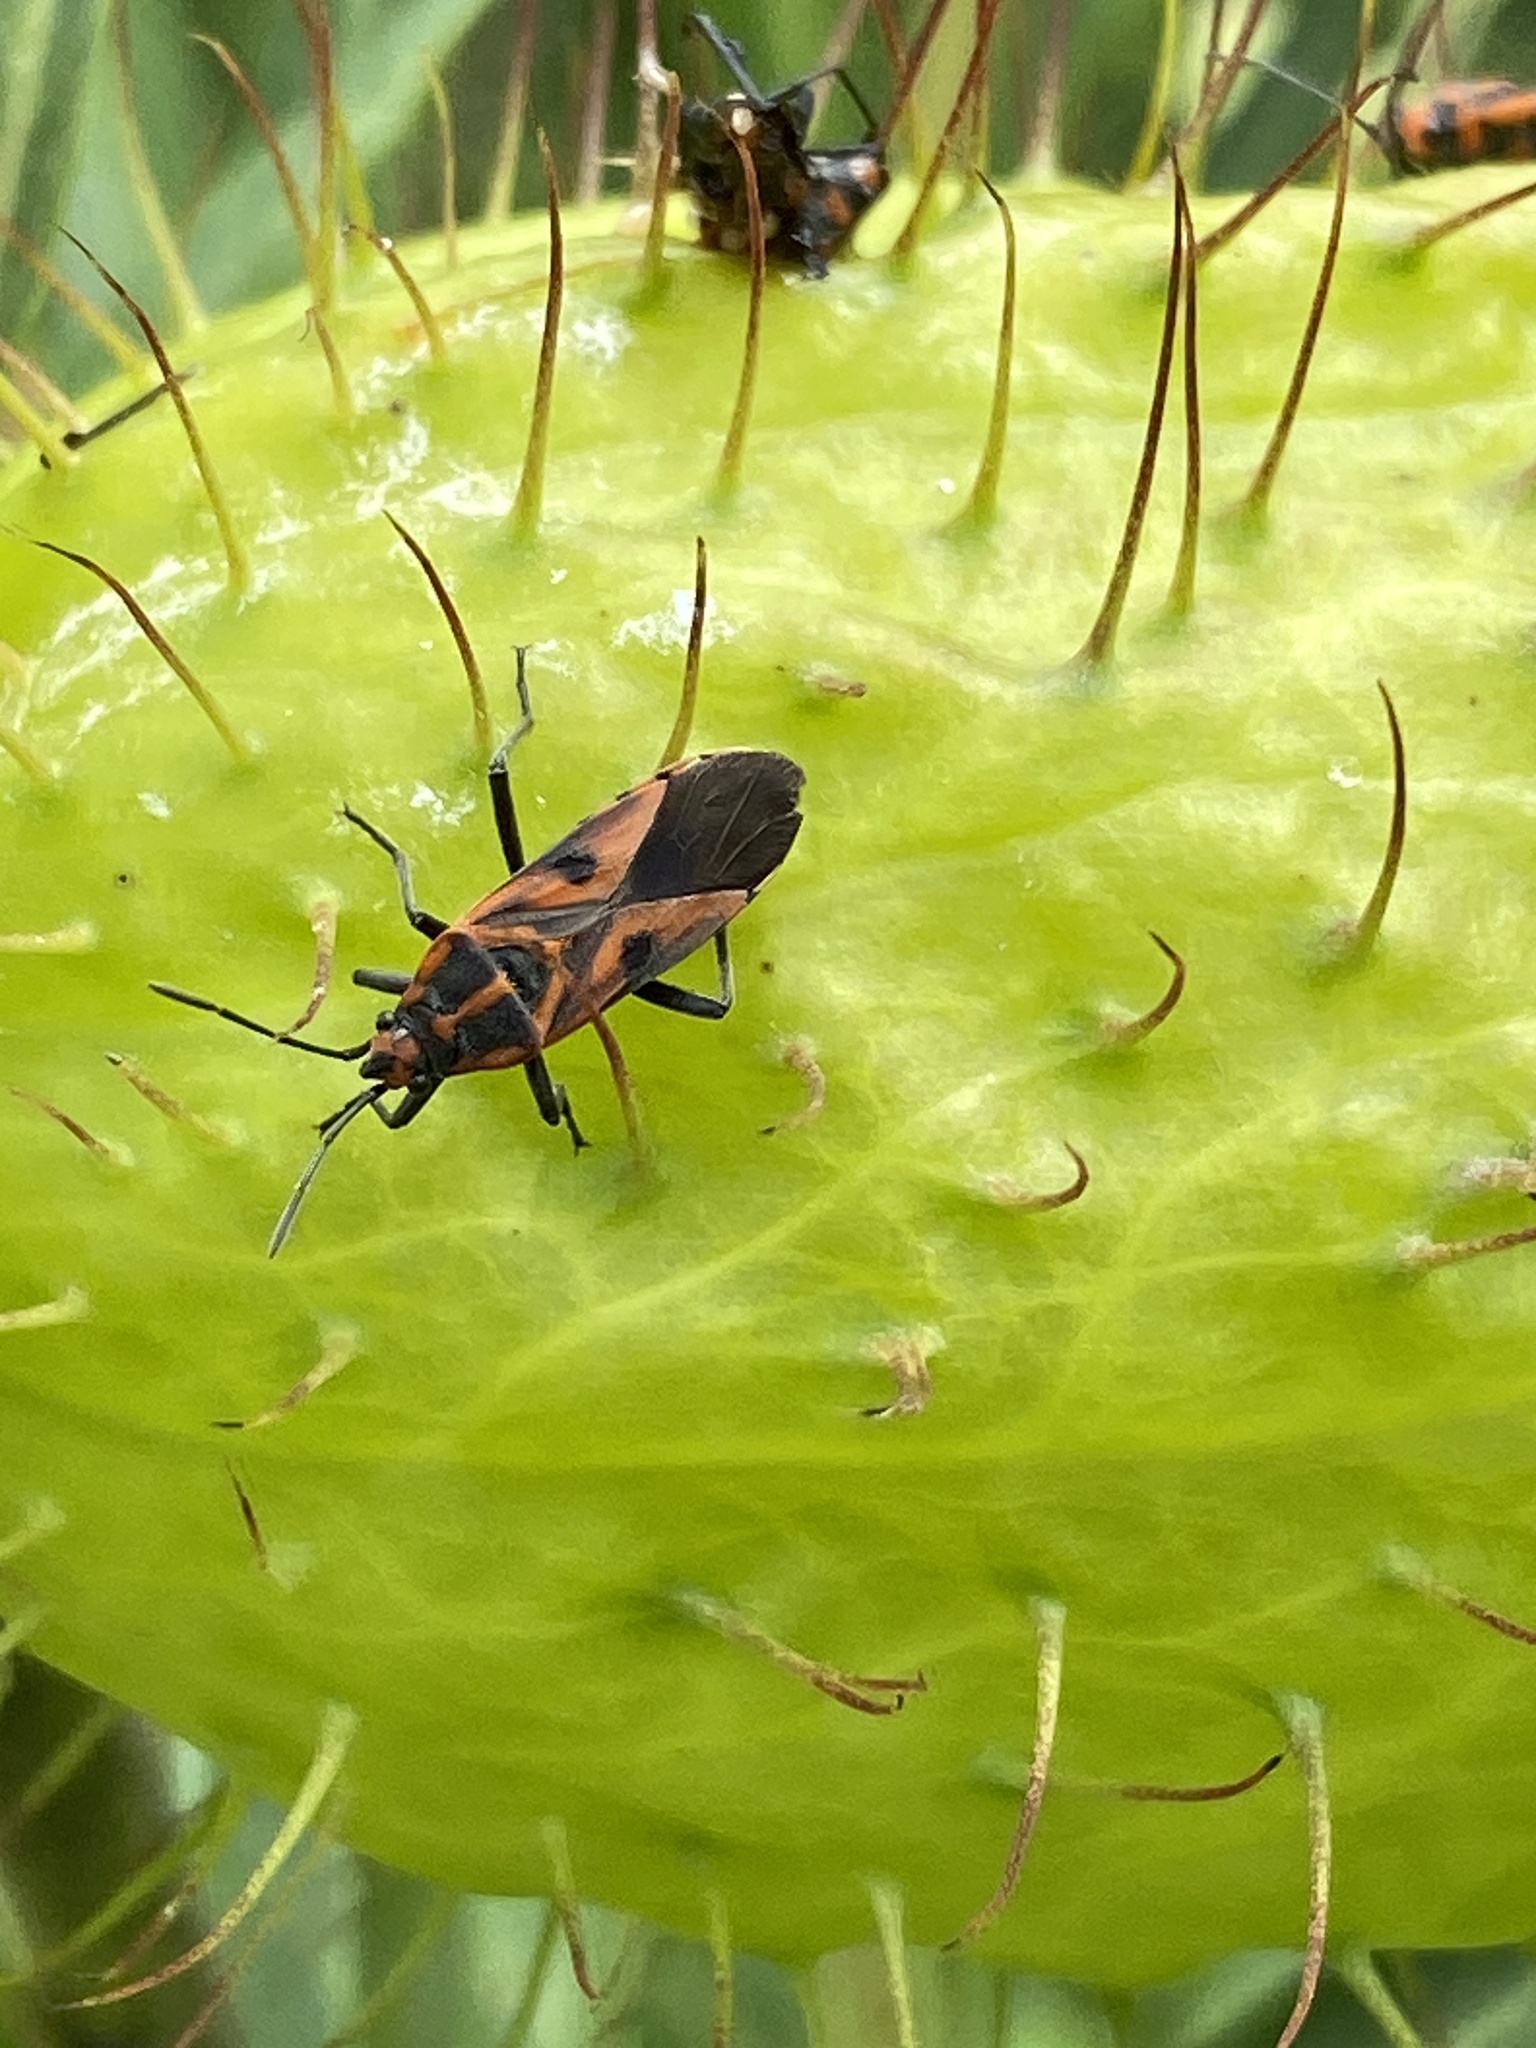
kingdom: Animalia
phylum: Arthropoda
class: Insecta
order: Hemiptera
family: Lygaeidae
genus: Spilostethus
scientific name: Spilostethus hospes
